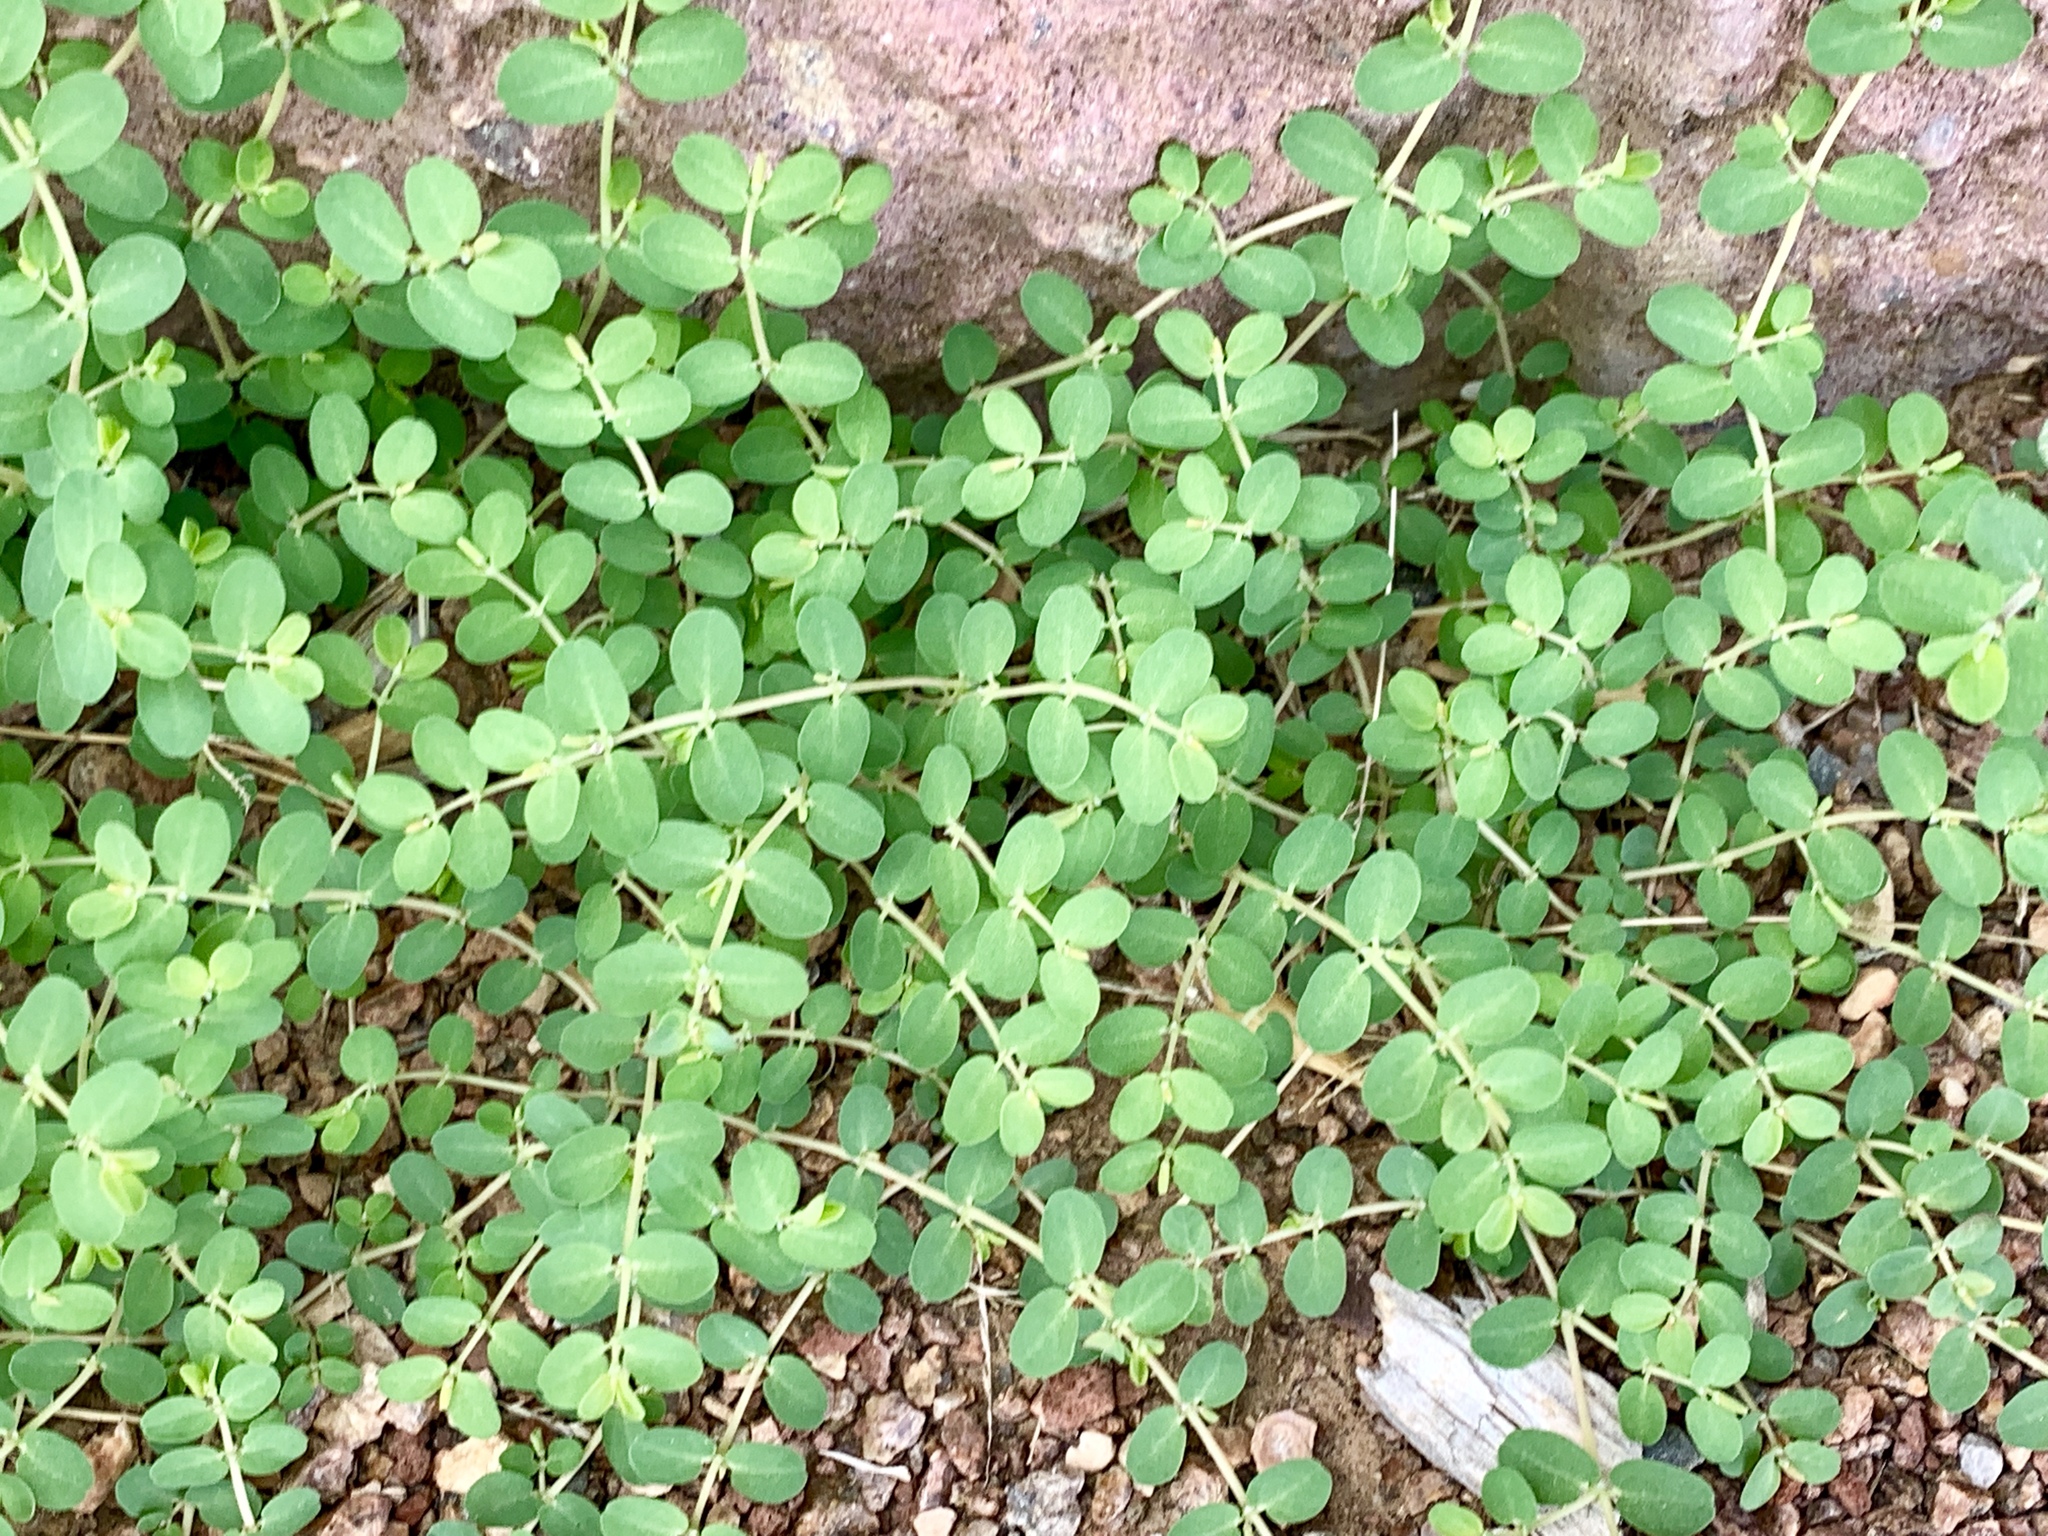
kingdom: Plantae
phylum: Tracheophyta
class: Magnoliopsida
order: Malpighiales
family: Euphorbiaceae
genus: Euphorbia
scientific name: Euphorbia prostrata
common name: Prostrate sandmat
